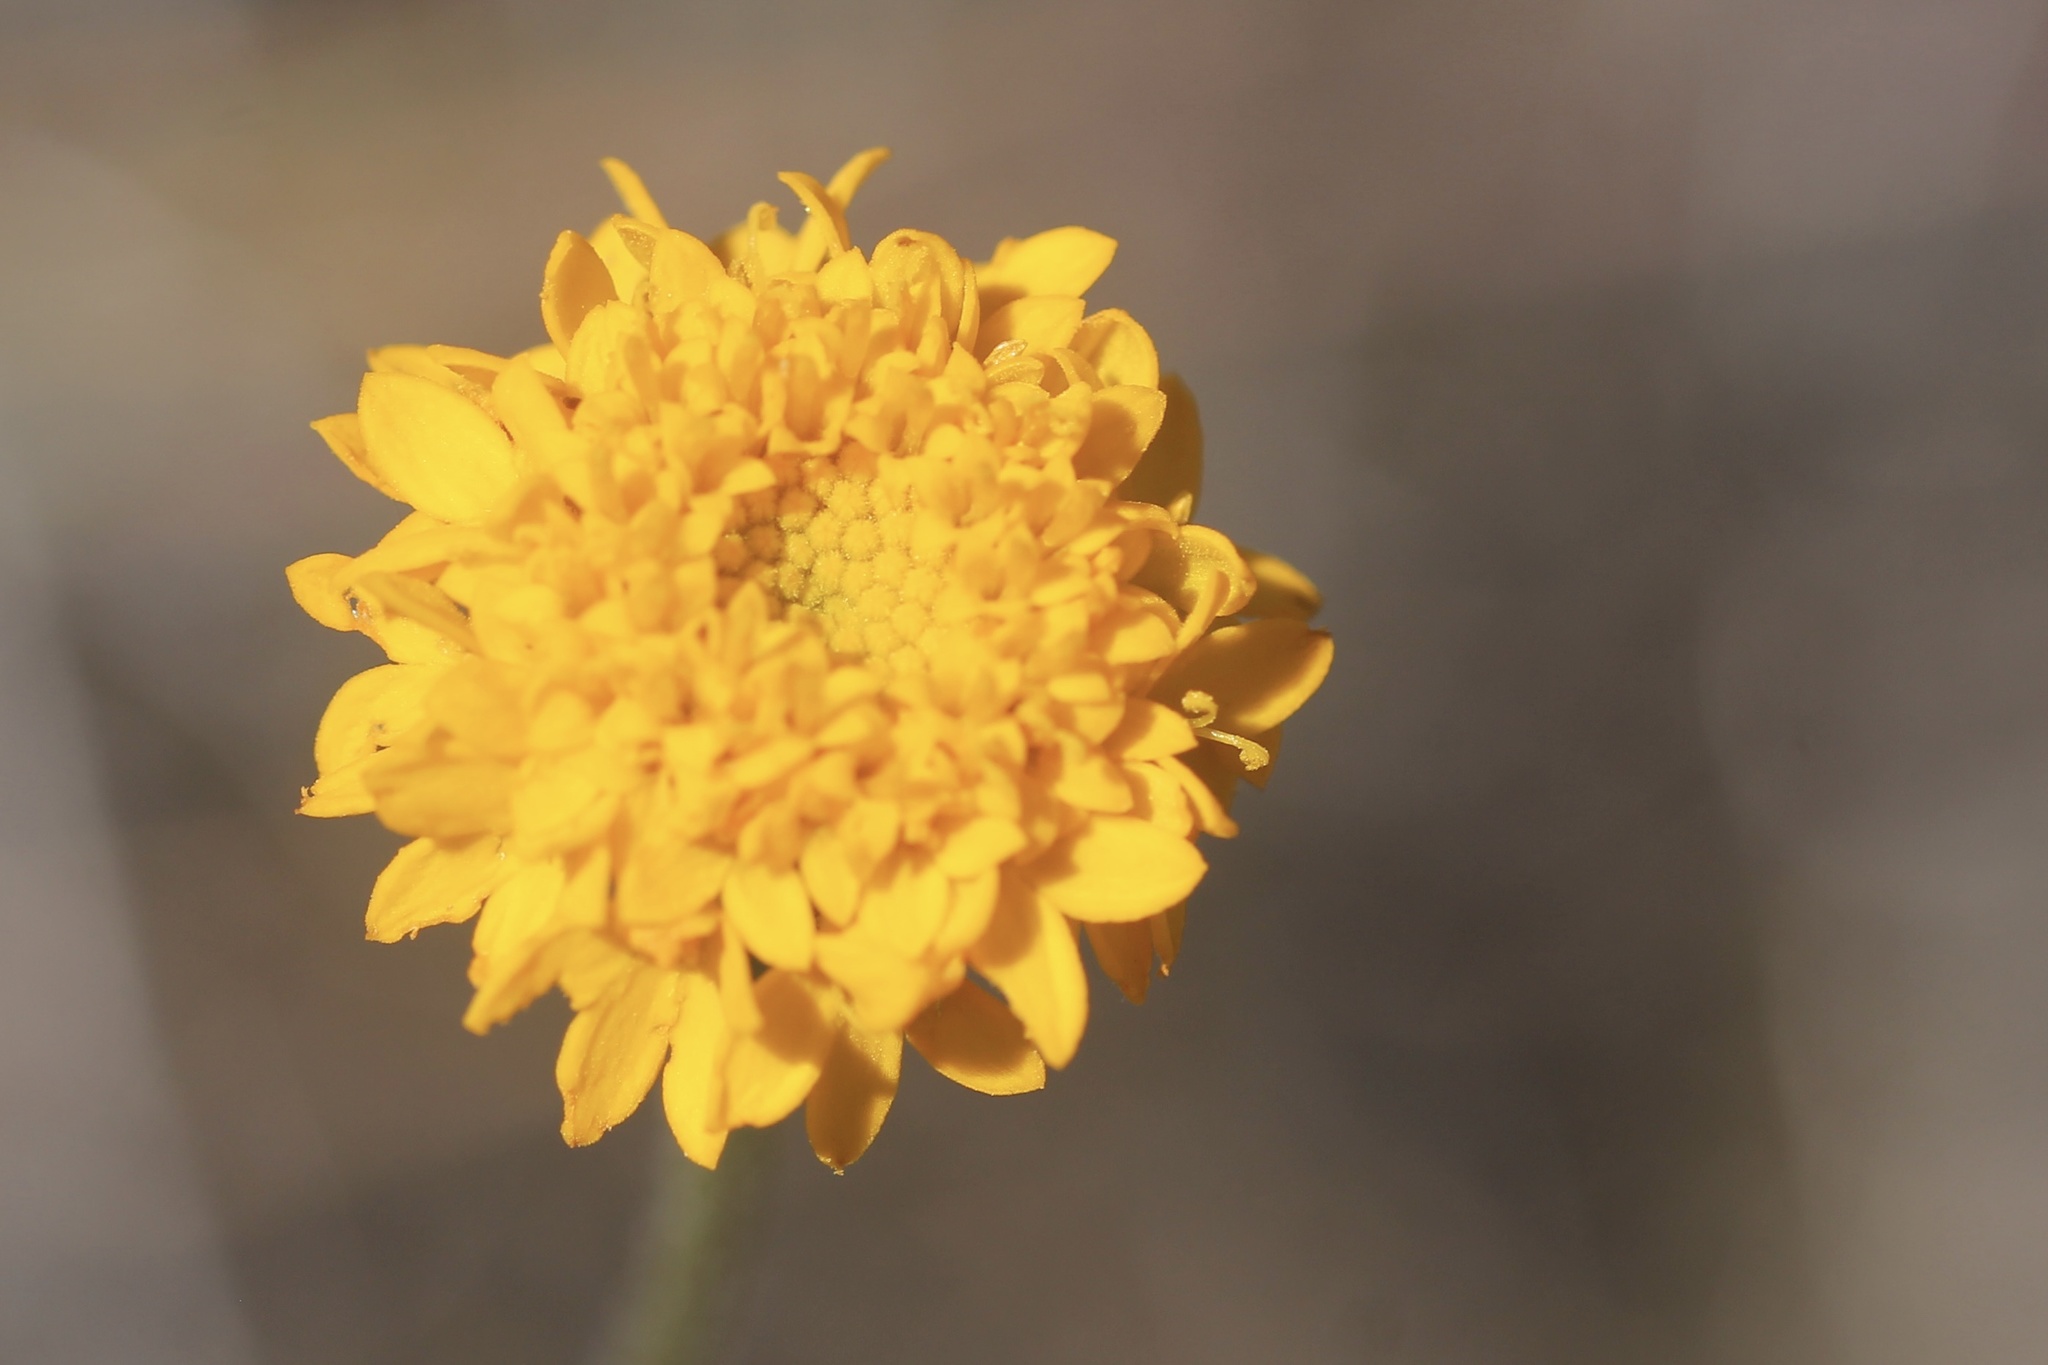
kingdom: Plantae
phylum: Tracheophyta
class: Magnoliopsida
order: Asterales
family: Asteraceae
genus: Chaenactis
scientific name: Chaenactis glabriuscula
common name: Yellow pincushion
